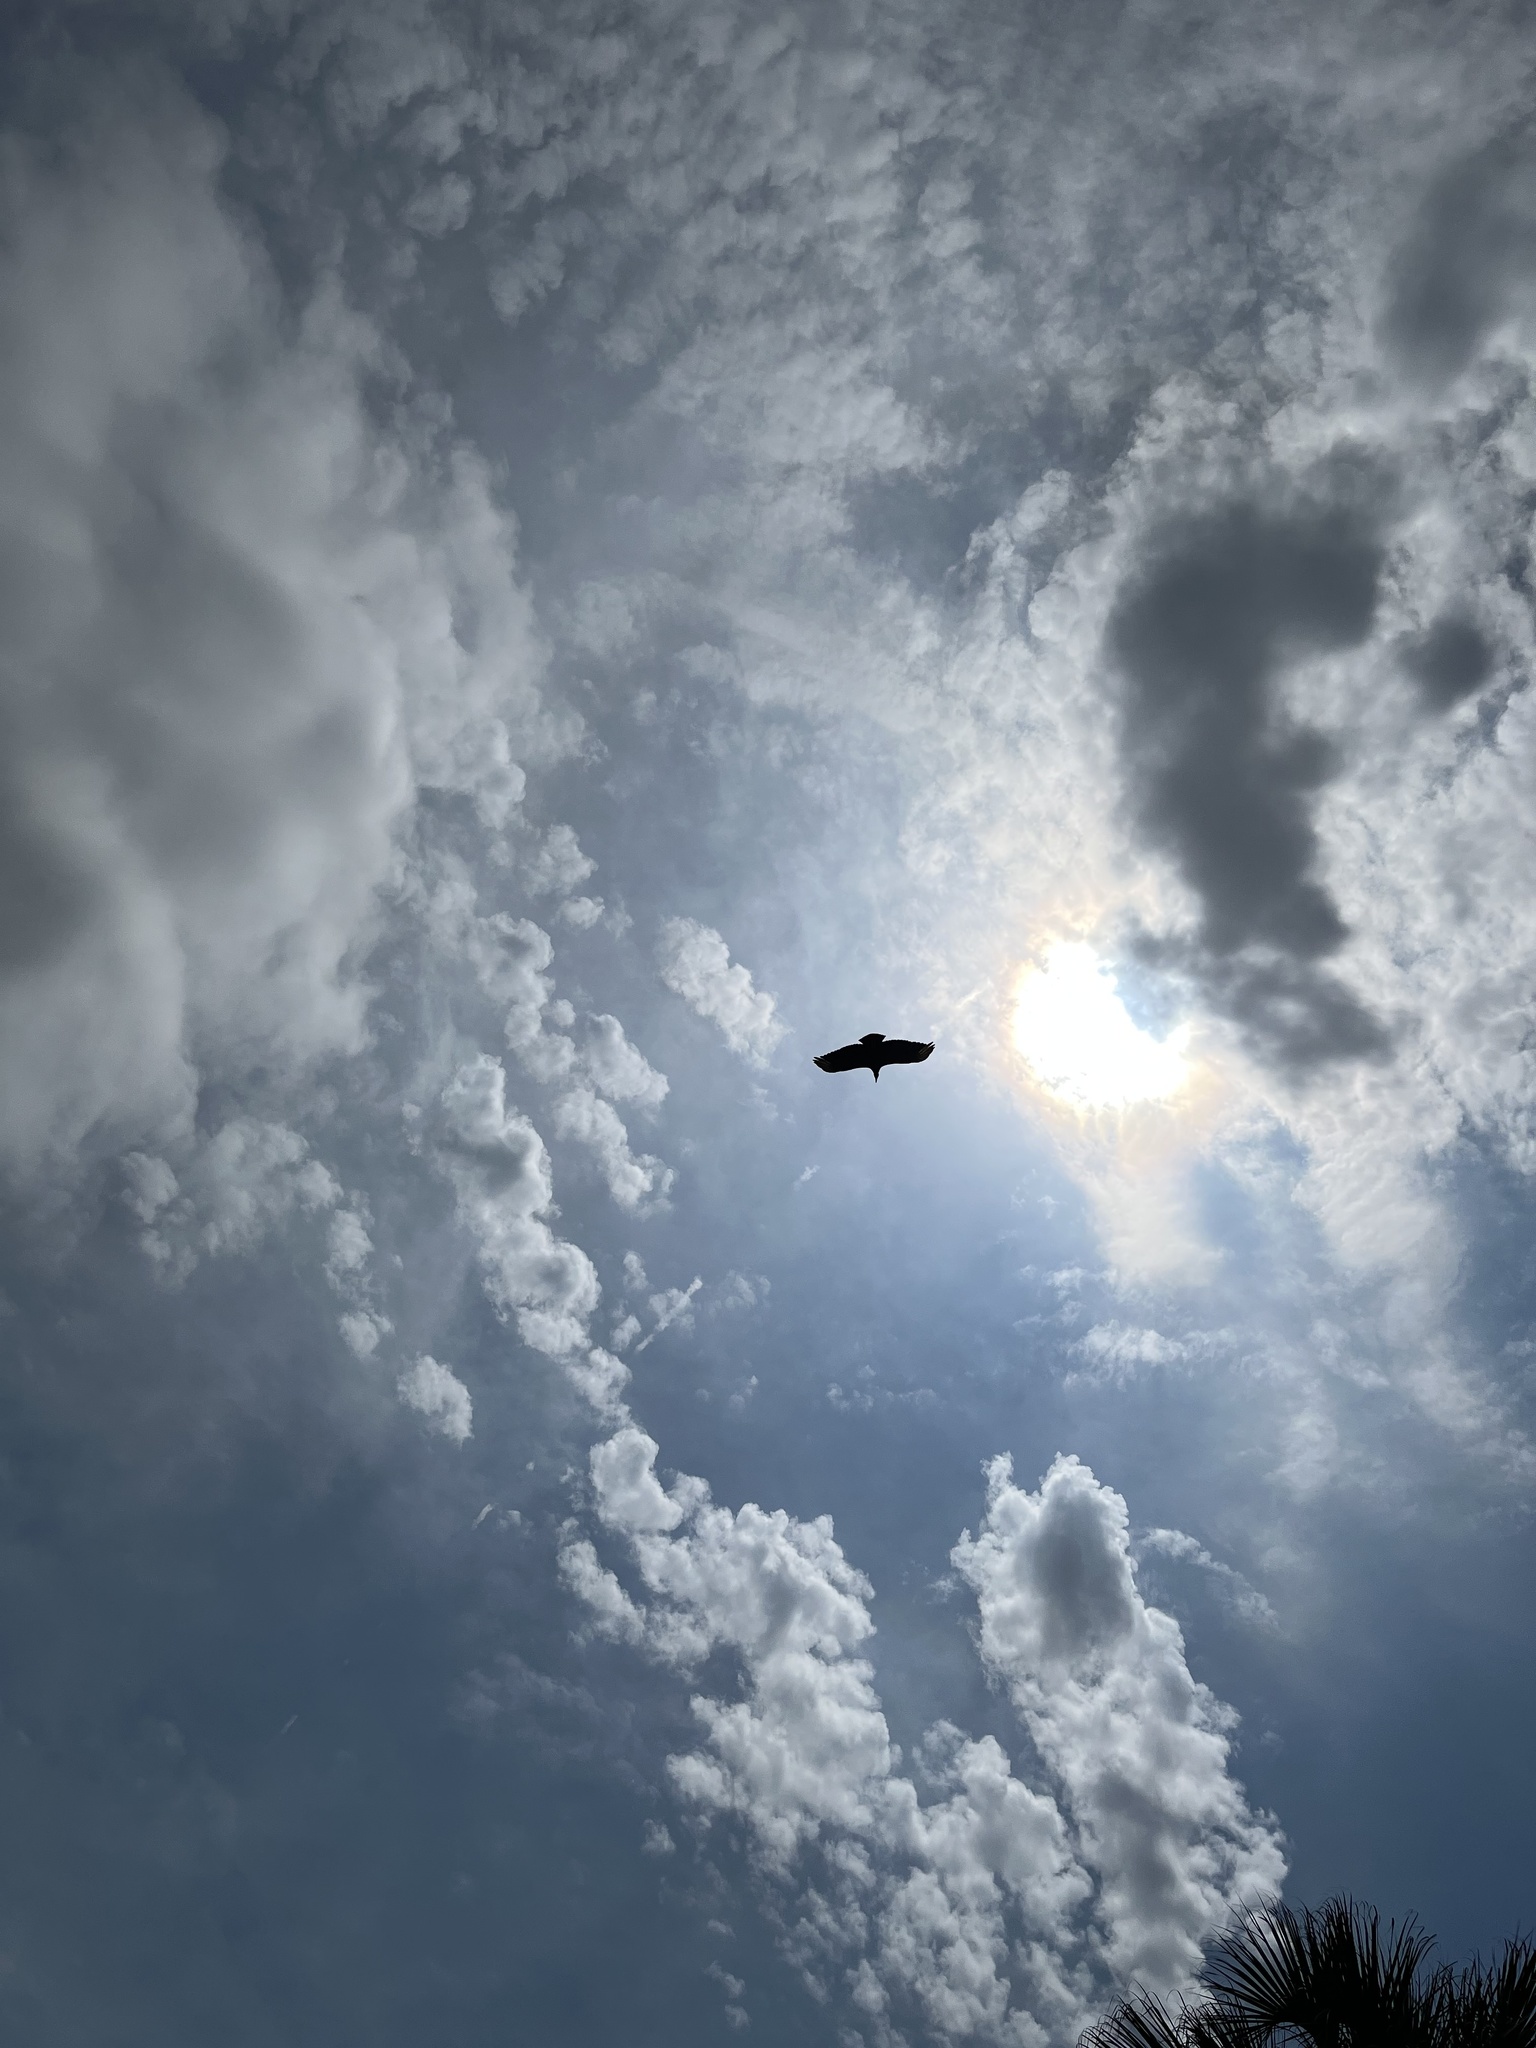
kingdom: Animalia
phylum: Chordata
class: Aves
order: Accipitriformes
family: Cathartidae
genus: Coragyps
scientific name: Coragyps atratus
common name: Black vulture
